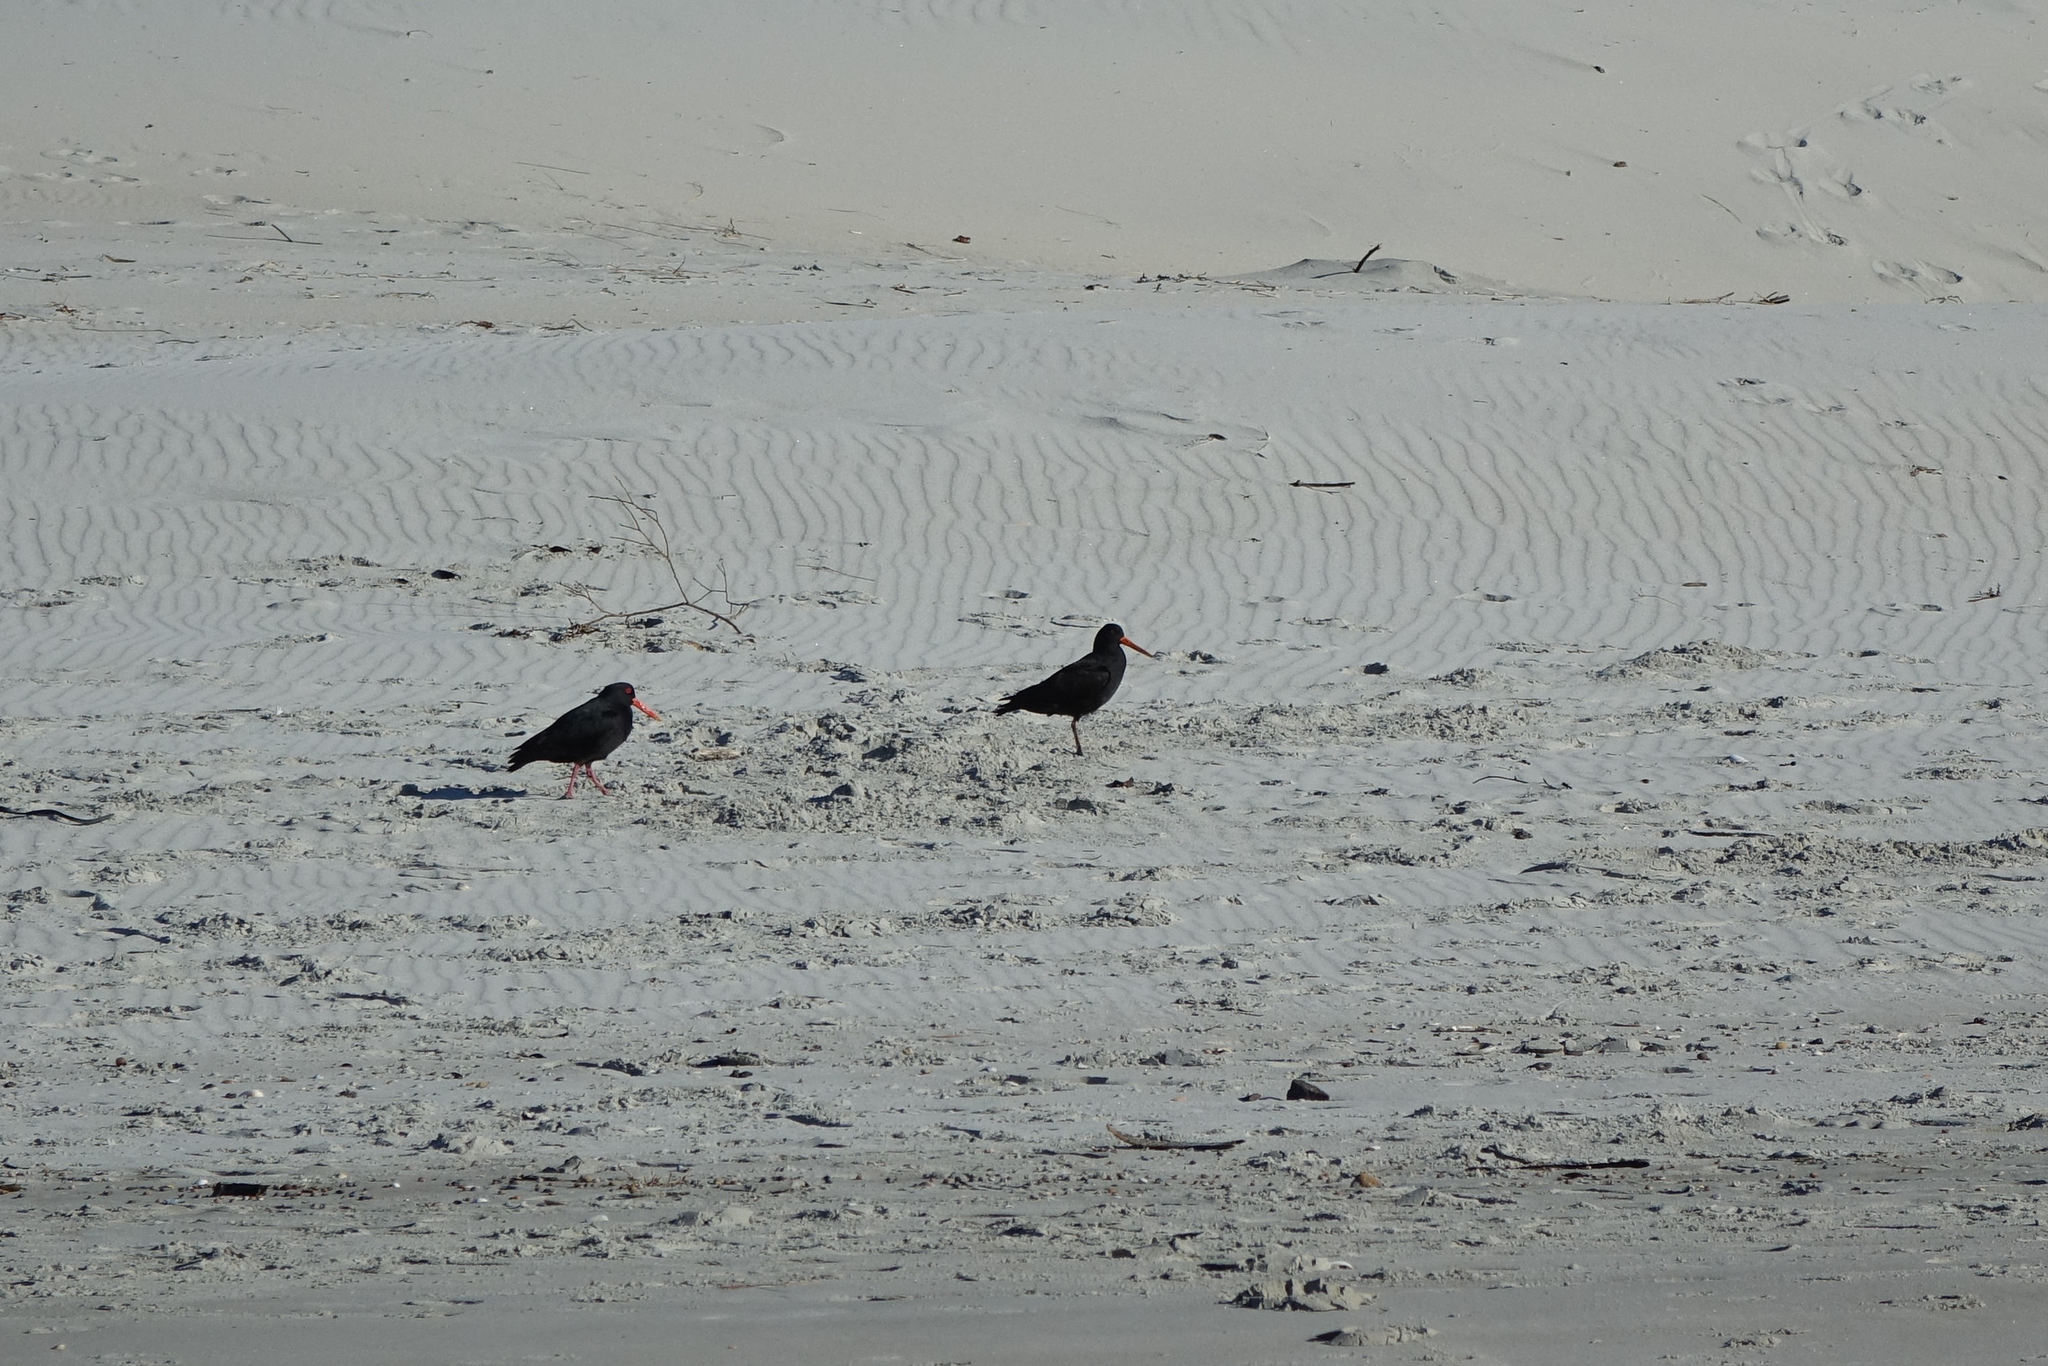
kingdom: Animalia
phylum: Chordata
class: Aves
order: Charadriiformes
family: Haematopodidae
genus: Haematopus
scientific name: Haematopus unicolor
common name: Variable oystercatcher
